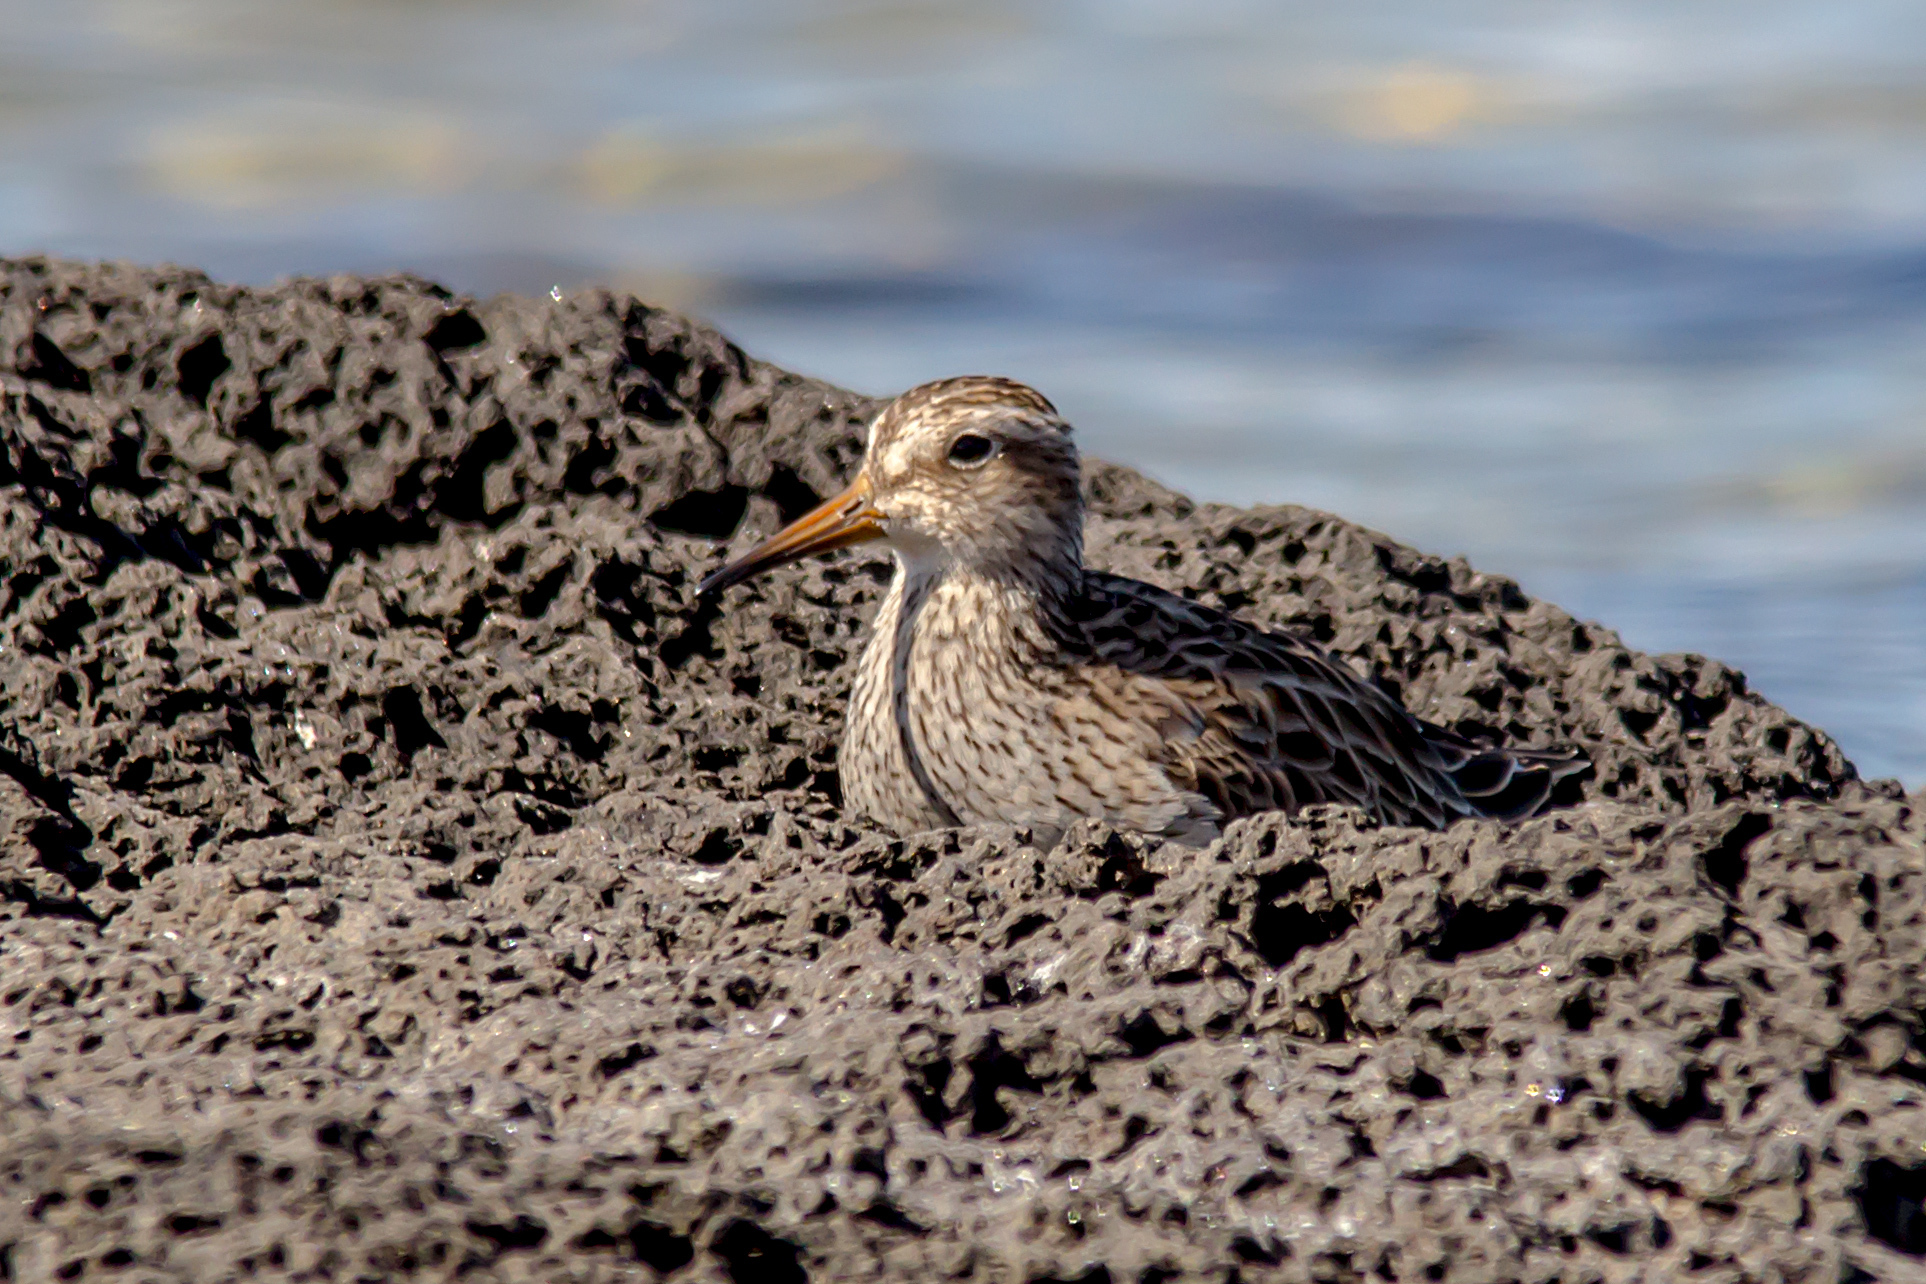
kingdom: Animalia
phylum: Chordata
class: Aves
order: Charadriiformes
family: Scolopacidae
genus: Calidris
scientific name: Calidris melanotos
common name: Pectoral sandpiper
